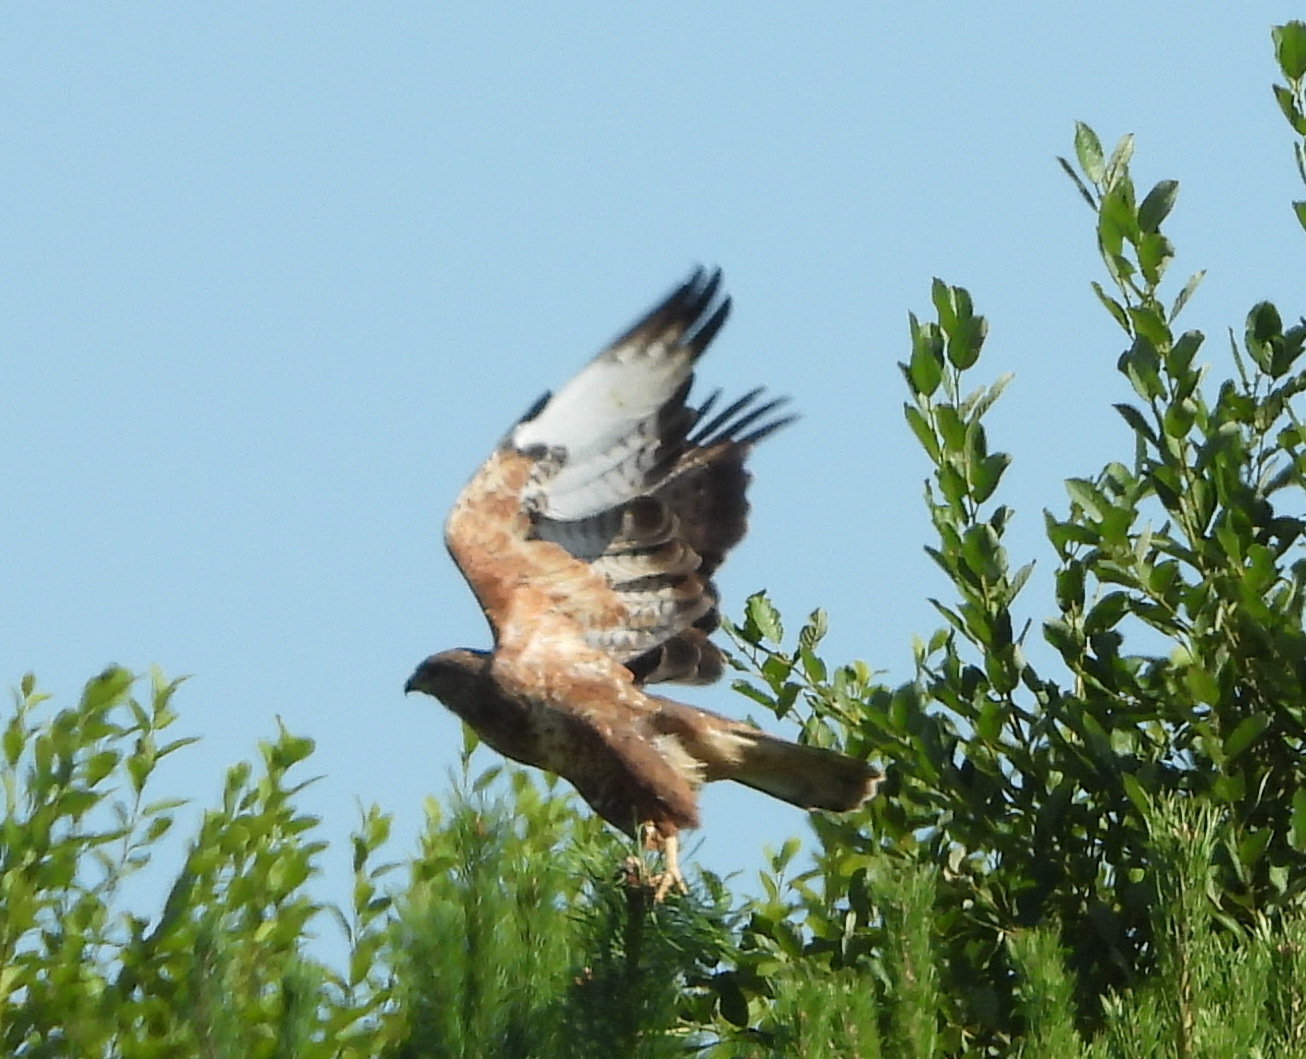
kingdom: Animalia
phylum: Chordata
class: Aves
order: Accipitriformes
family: Accipitridae
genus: Buteo
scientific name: Buteo buteo
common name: Common buzzard
